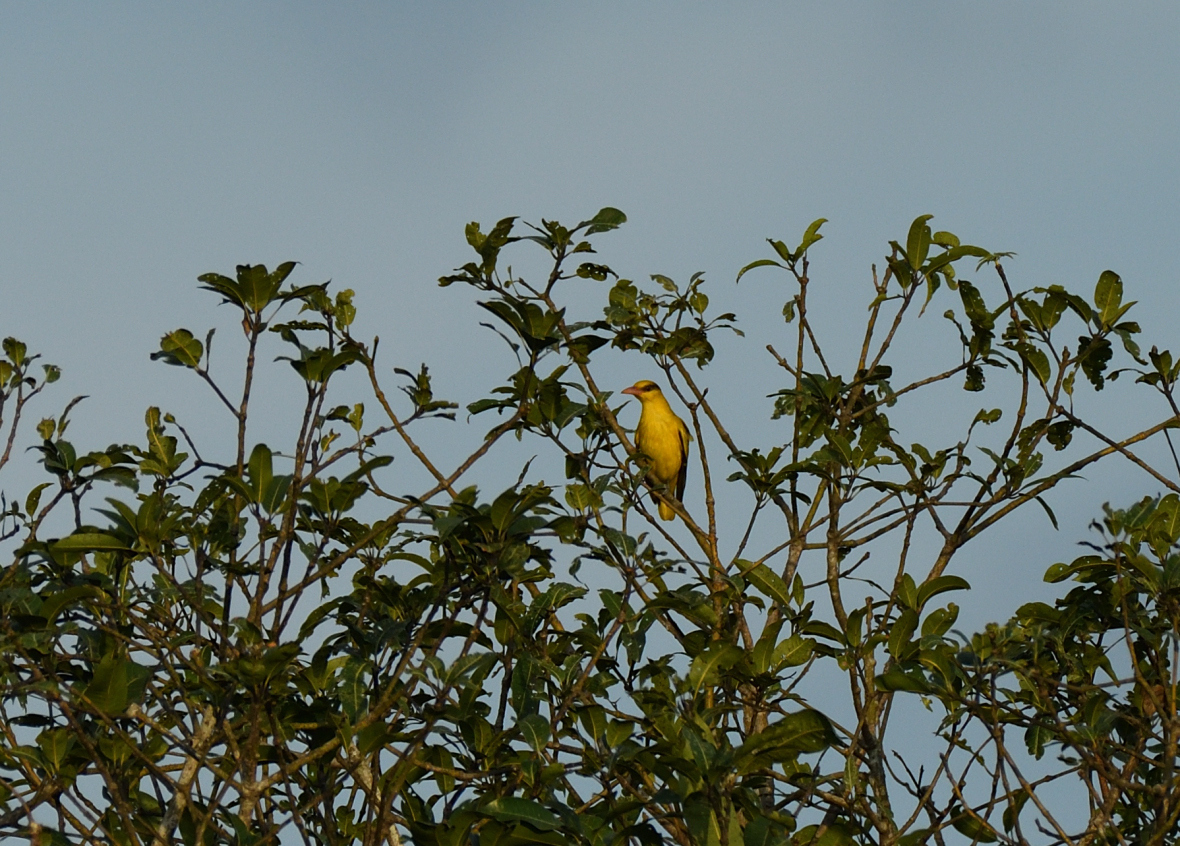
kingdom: Animalia
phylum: Chordata
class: Aves
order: Passeriformes
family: Oriolidae
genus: Oriolus
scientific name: Oriolus kundoo
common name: Indian golden oriole
